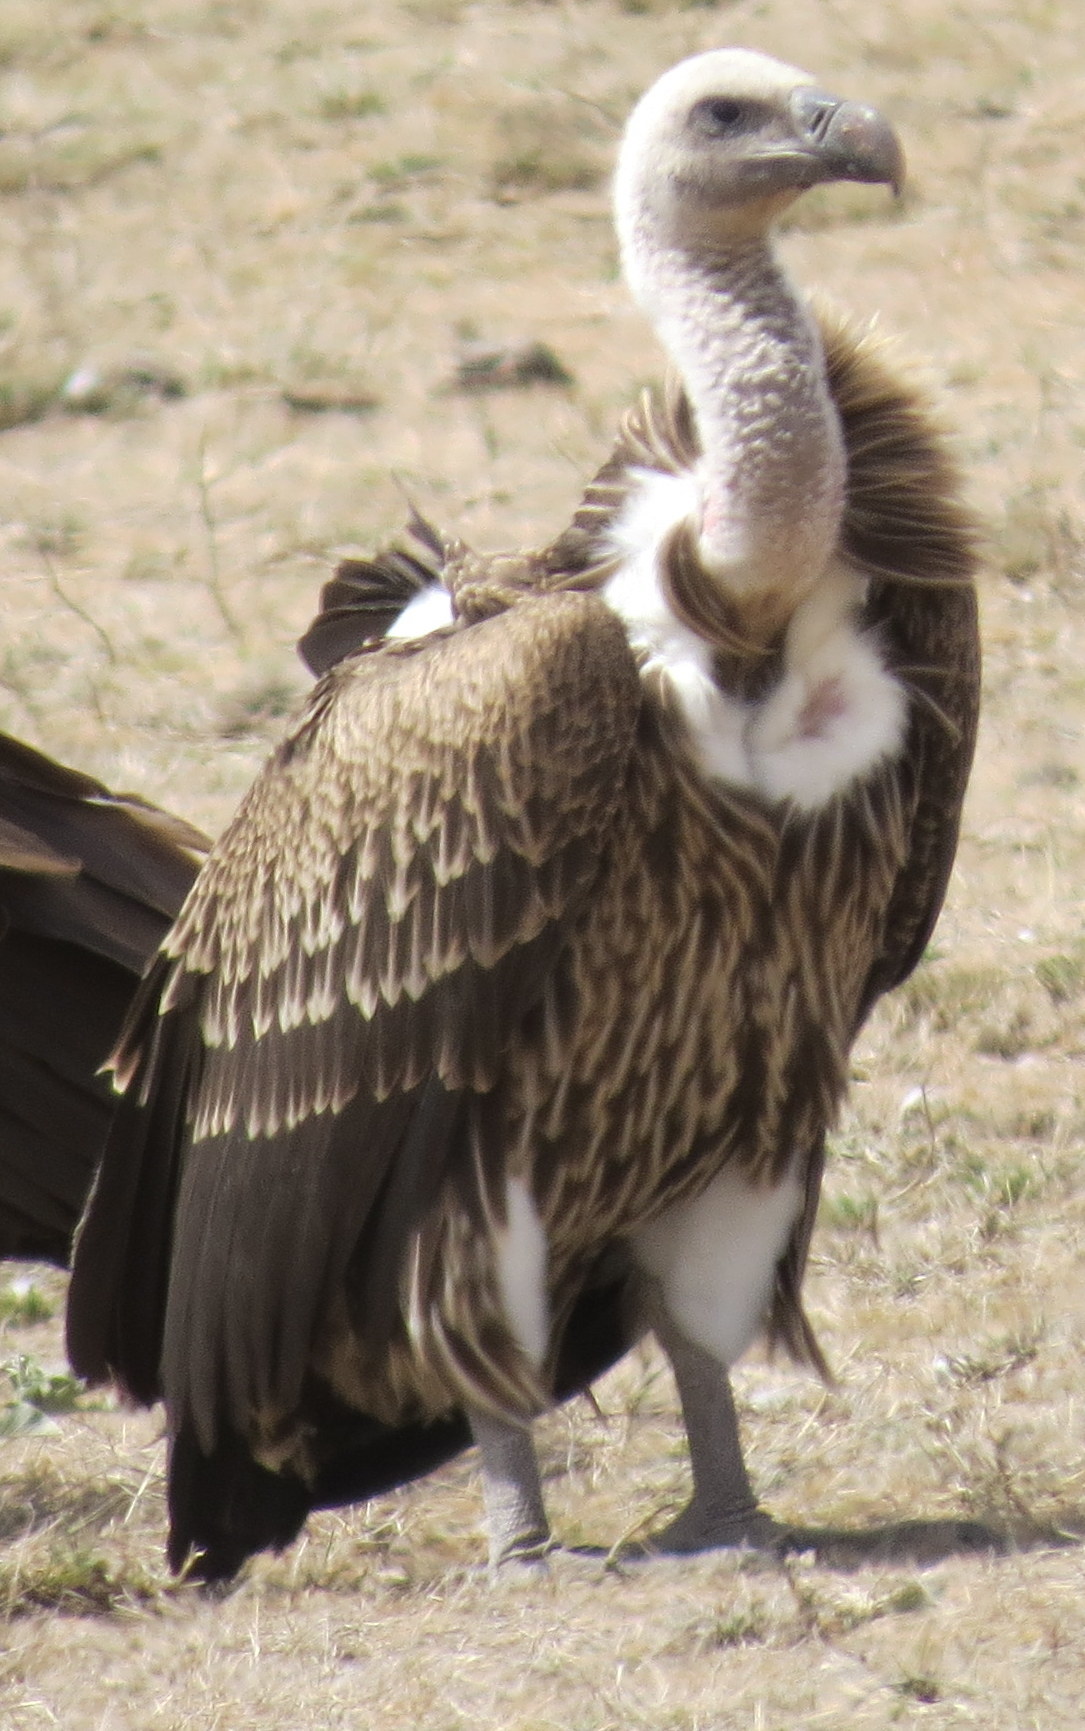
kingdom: Animalia
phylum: Chordata
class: Aves
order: Accipitriformes
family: Accipitridae
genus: Gyps
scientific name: Gyps rueppellii
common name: Rüppell's vulture
